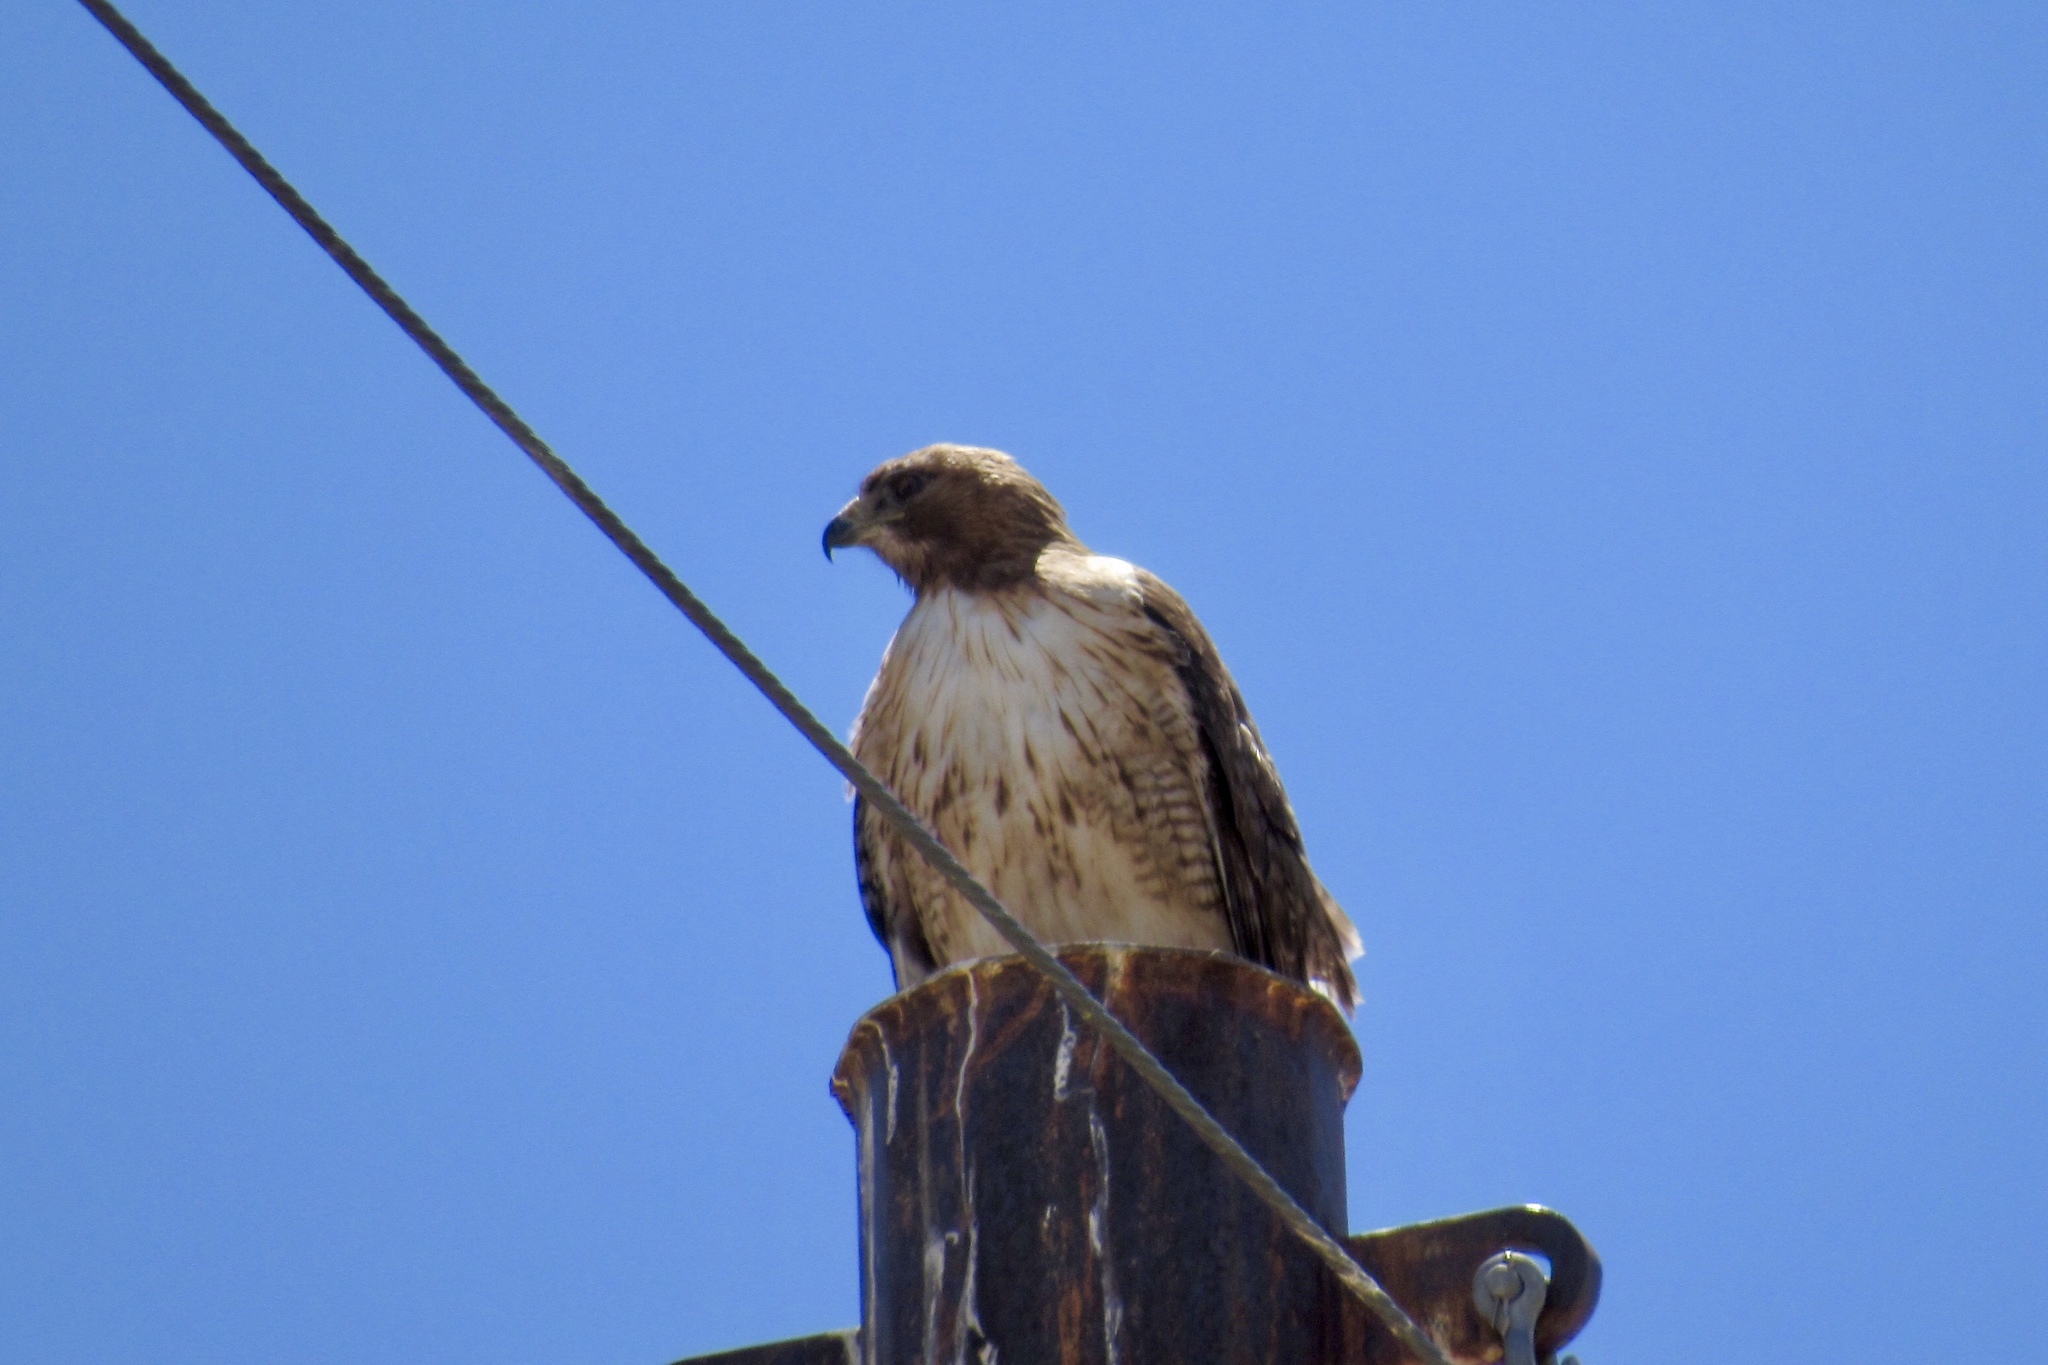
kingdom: Animalia
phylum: Chordata
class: Aves
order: Accipitriformes
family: Accipitridae
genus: Buteo
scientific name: Buteo jamaicensis
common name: Red-tailed hawk
